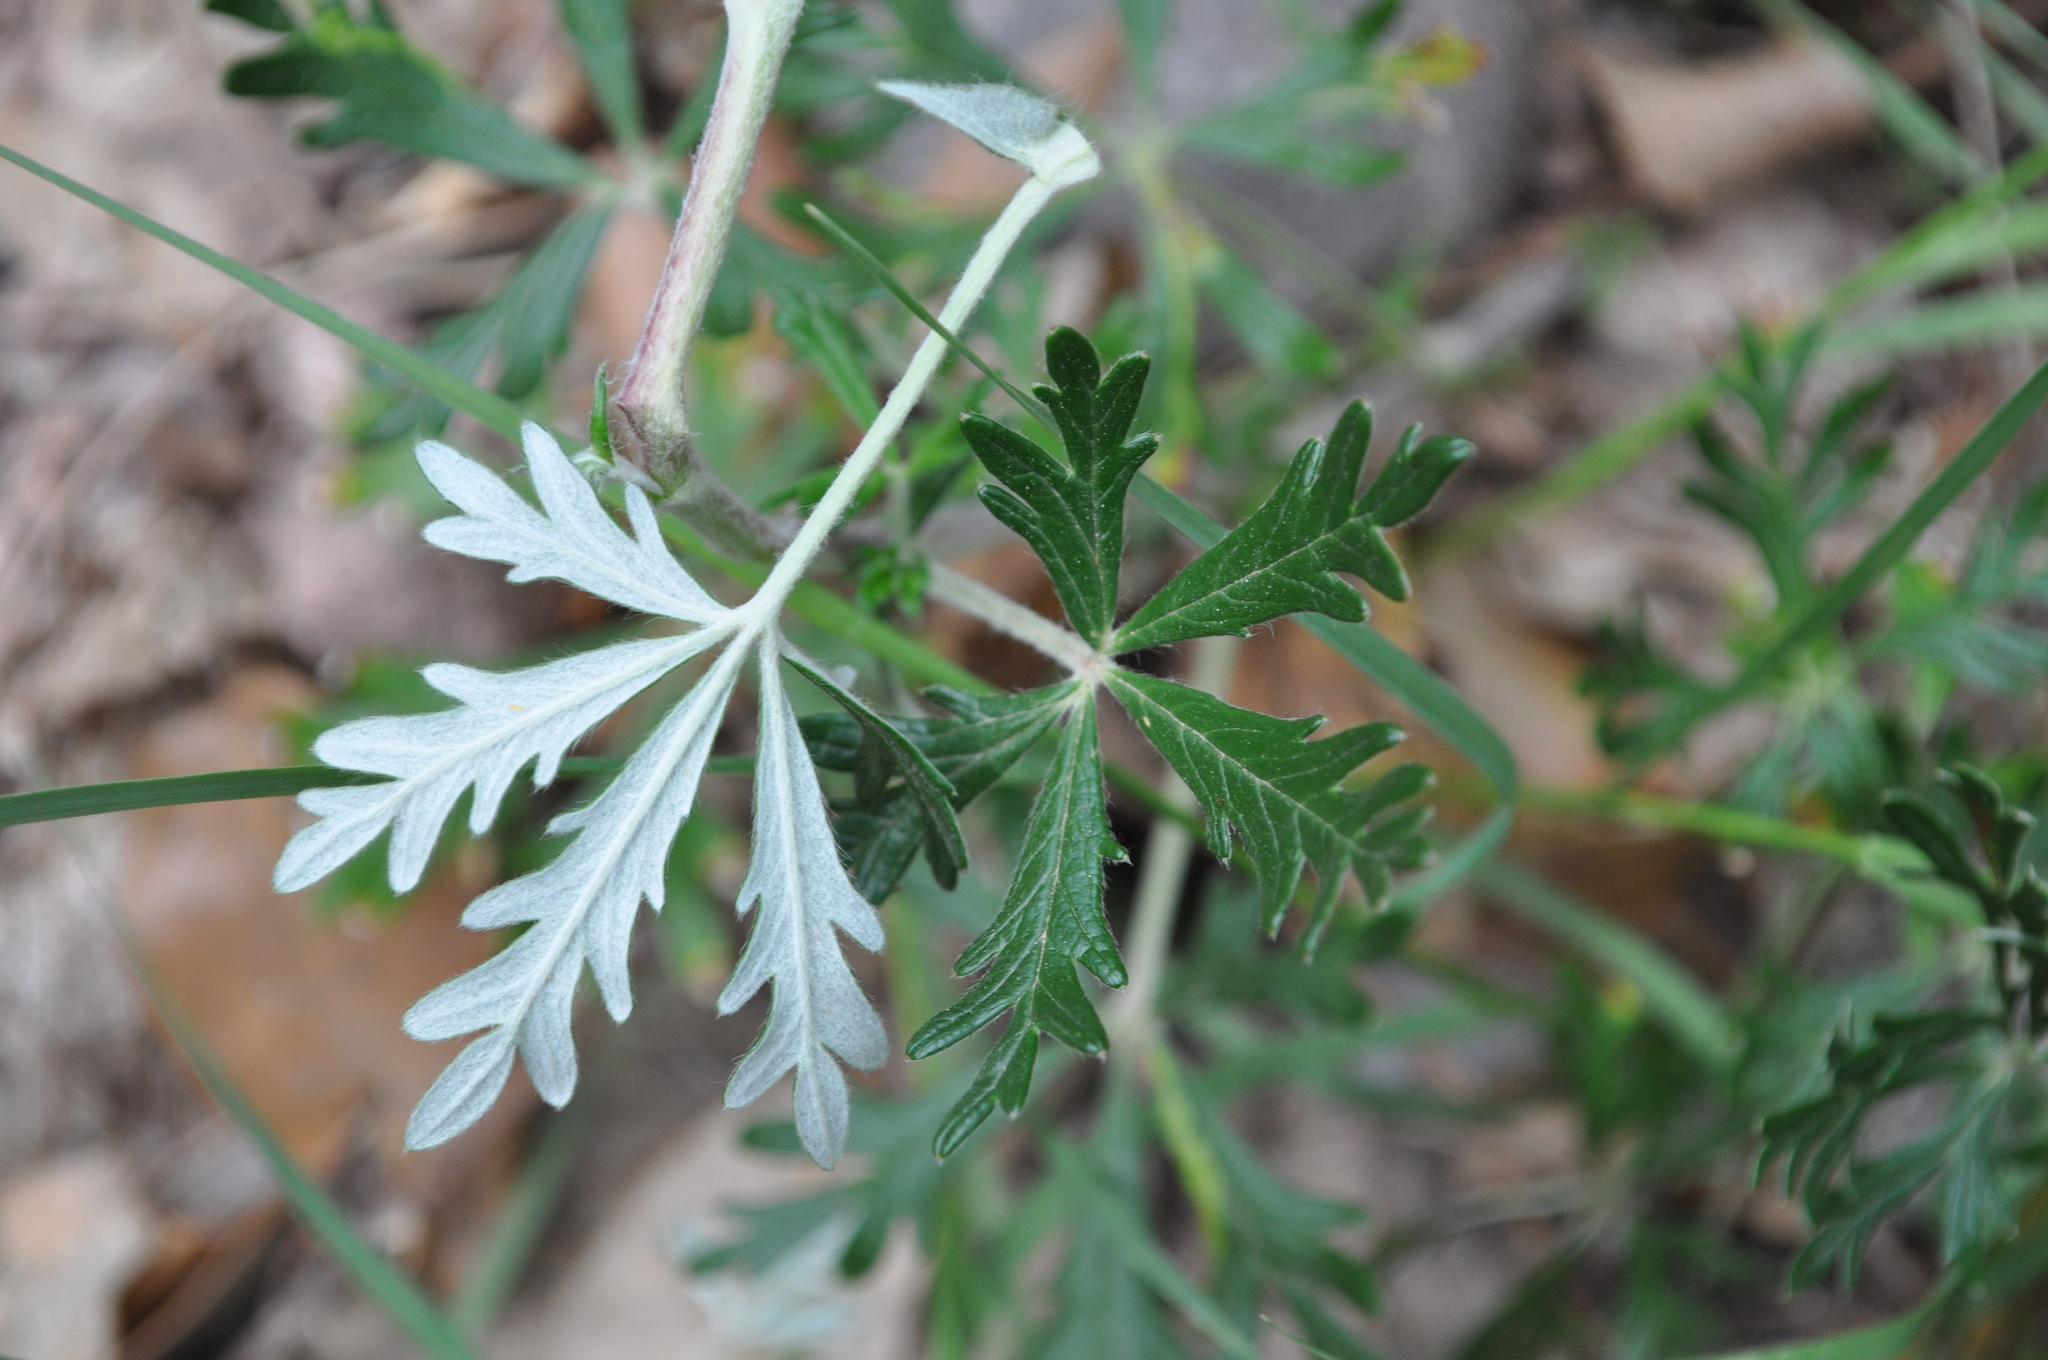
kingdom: Plantae
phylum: Tracheophyta
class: Magnoliopsida
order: Rosales
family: Rosaceae
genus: Potentilla
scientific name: Potentilla argentea
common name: Hoary cinquefoil
